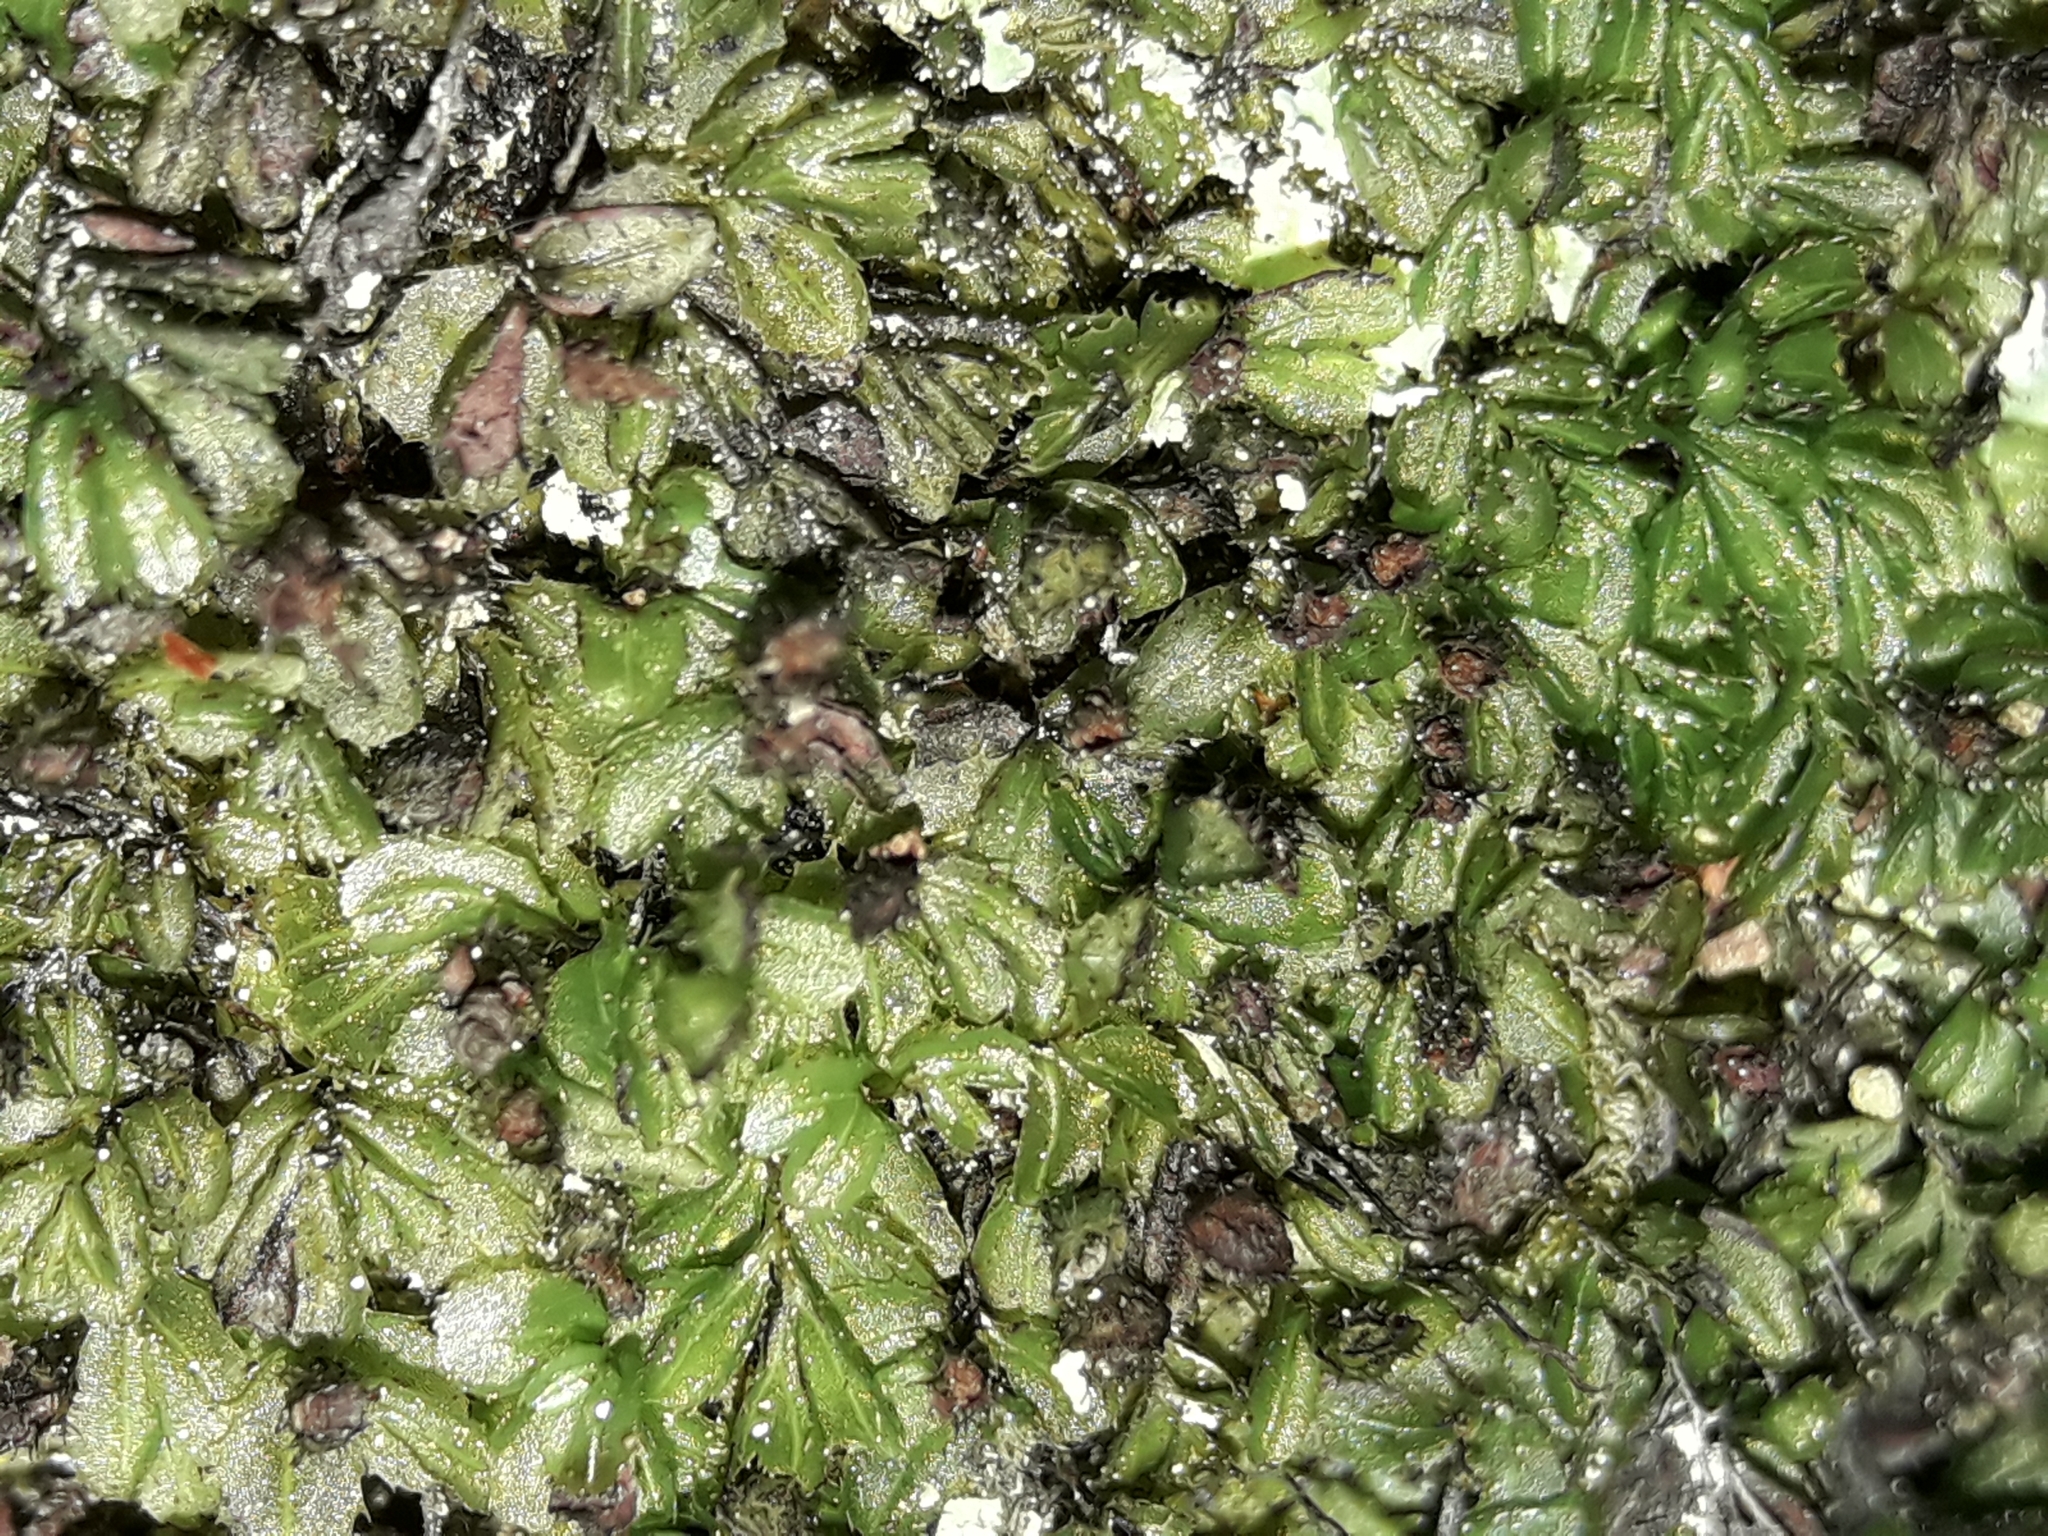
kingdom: Plantae
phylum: Tracheophyta
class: Polypodiopsida
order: Hymenophyllales
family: Hymenophyllaceae
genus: Hymenophyllum
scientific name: Hymenophyllum minimum
